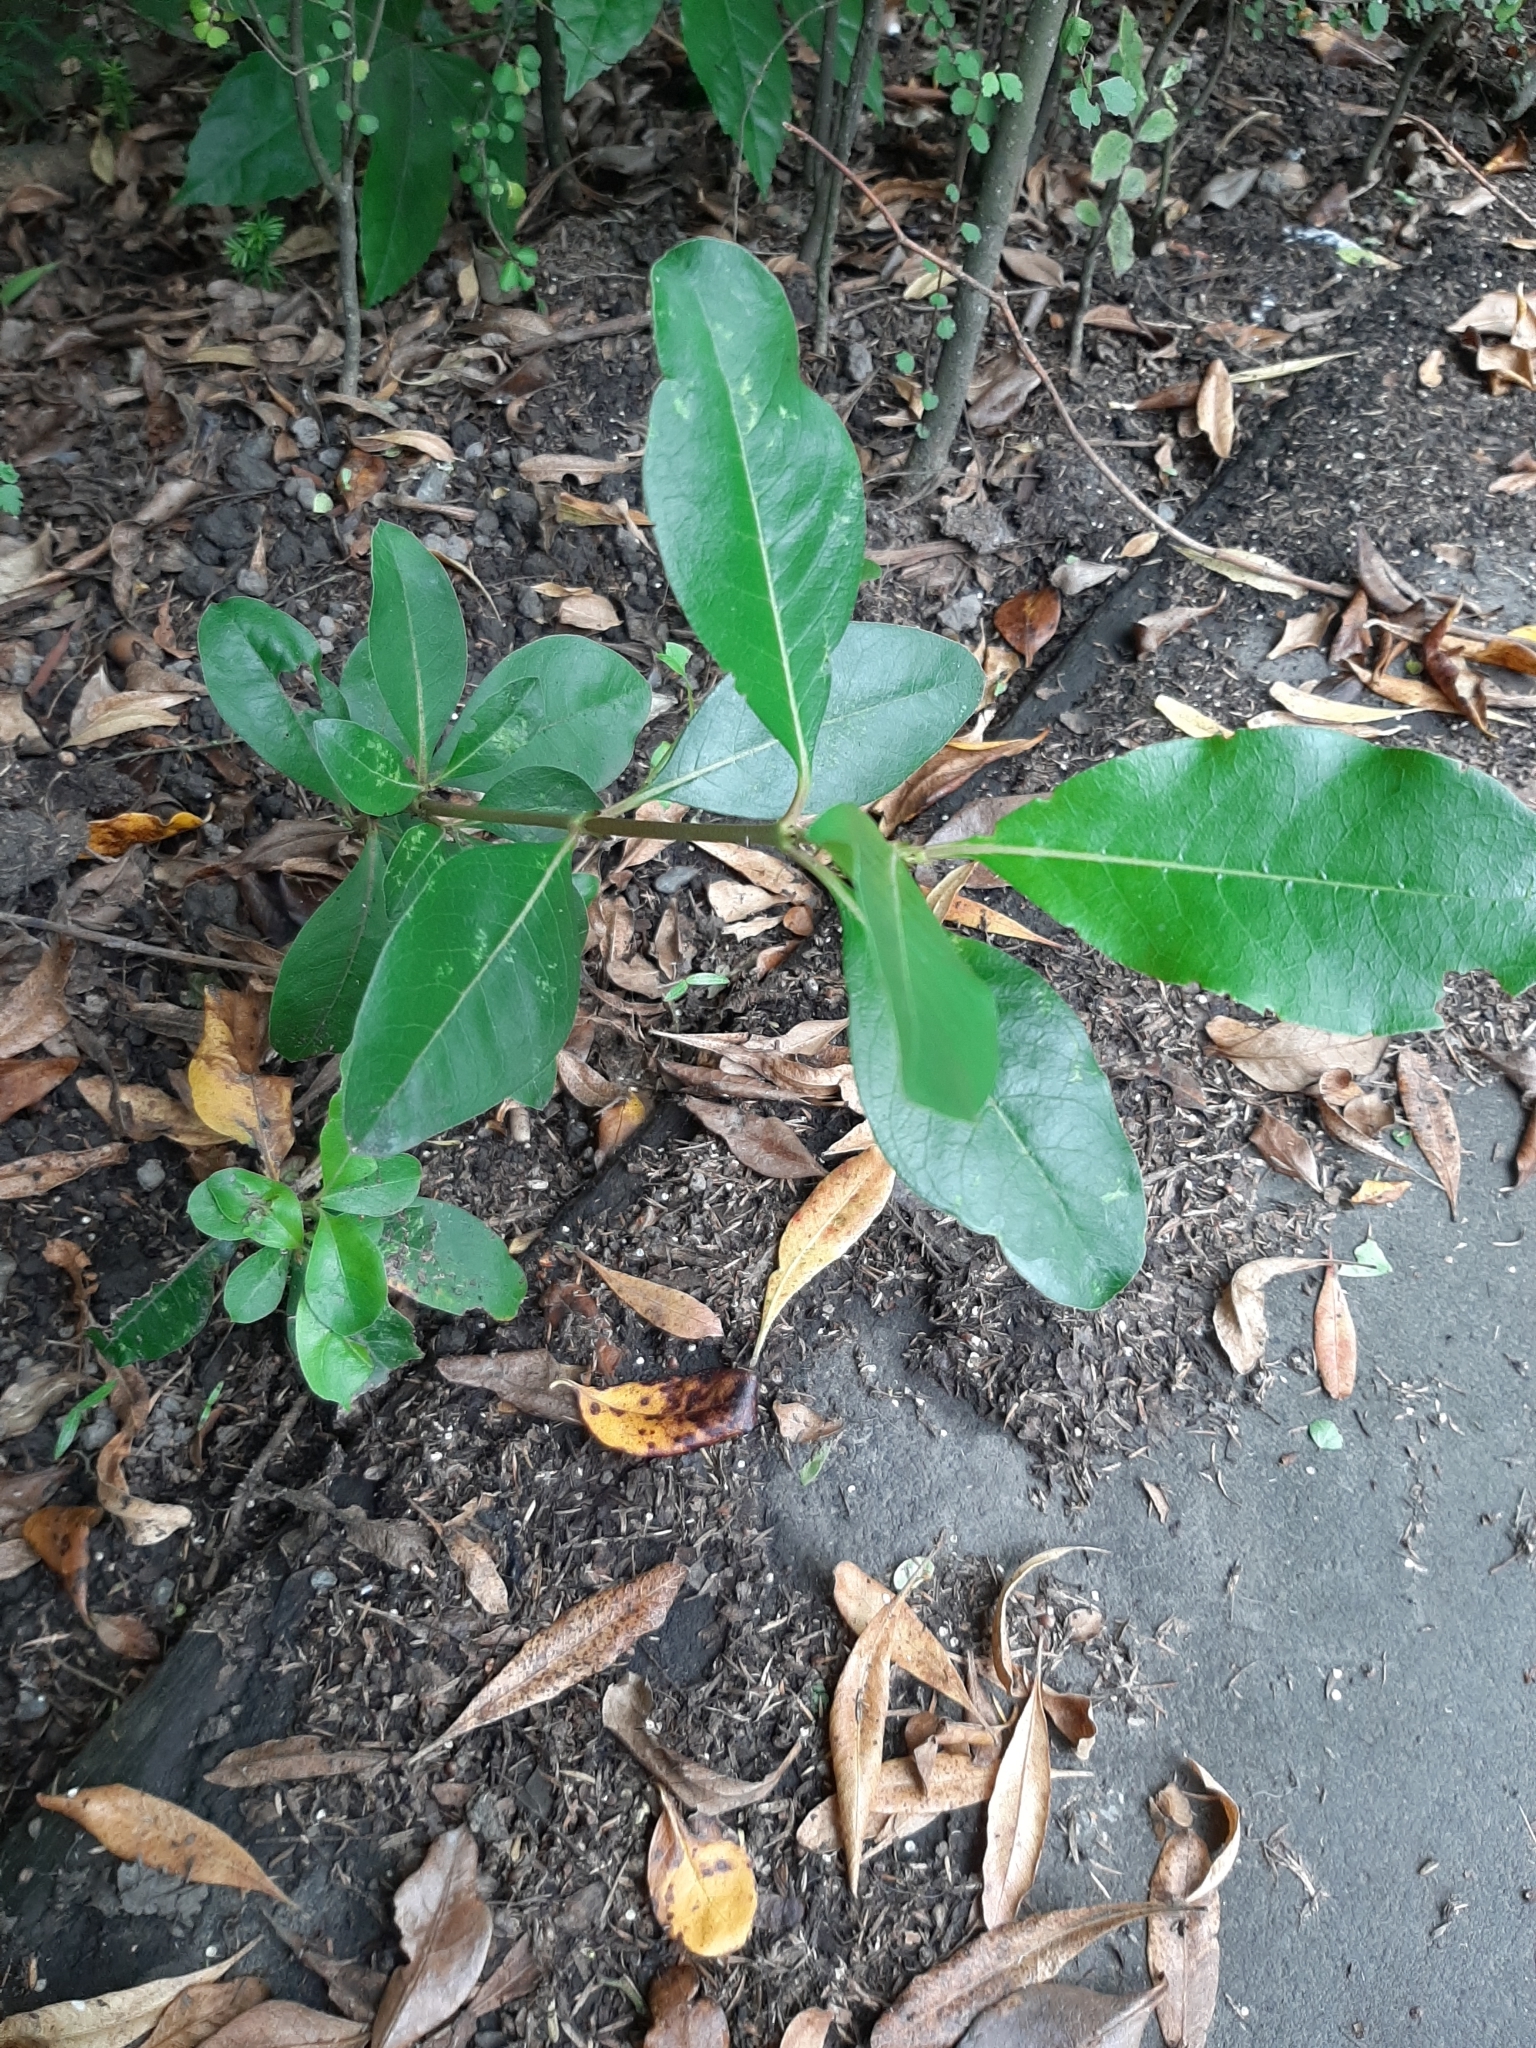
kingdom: Plantae
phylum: Tracheophyta
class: Magnoliopsida
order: Gentianales
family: Rubiaceae
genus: Coprosma
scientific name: Coprosma robusta
